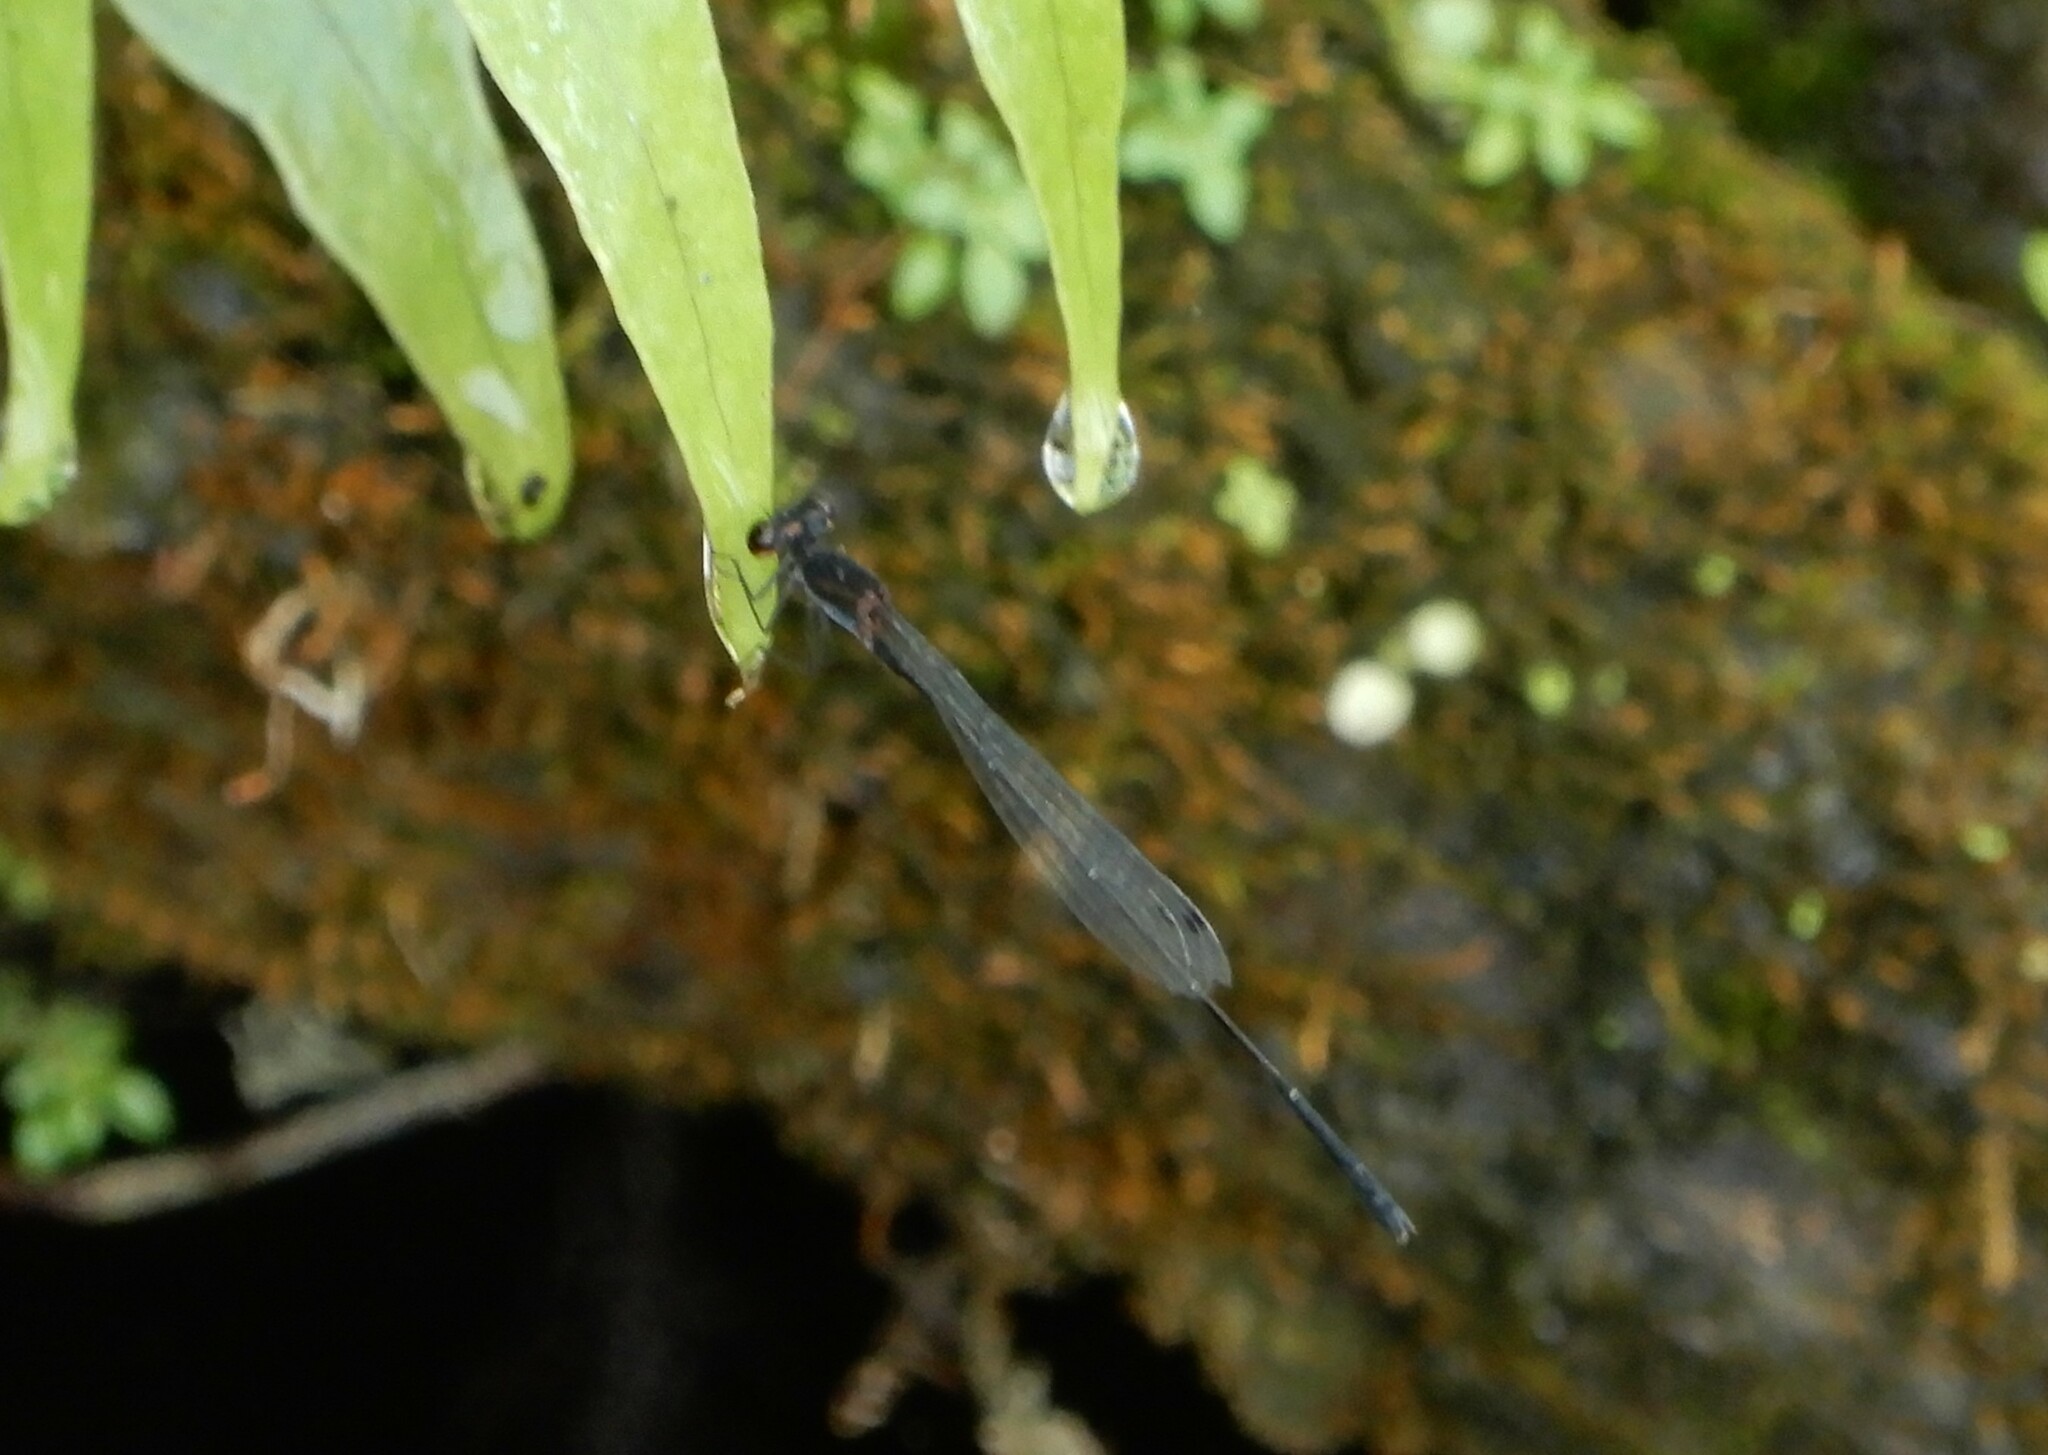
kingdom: Animalia
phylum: Arthropoda
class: Insecta
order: Odonata
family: Platycnemididae
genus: Prodasineura
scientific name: Prodasineura autumnalis
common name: Black threadtail
